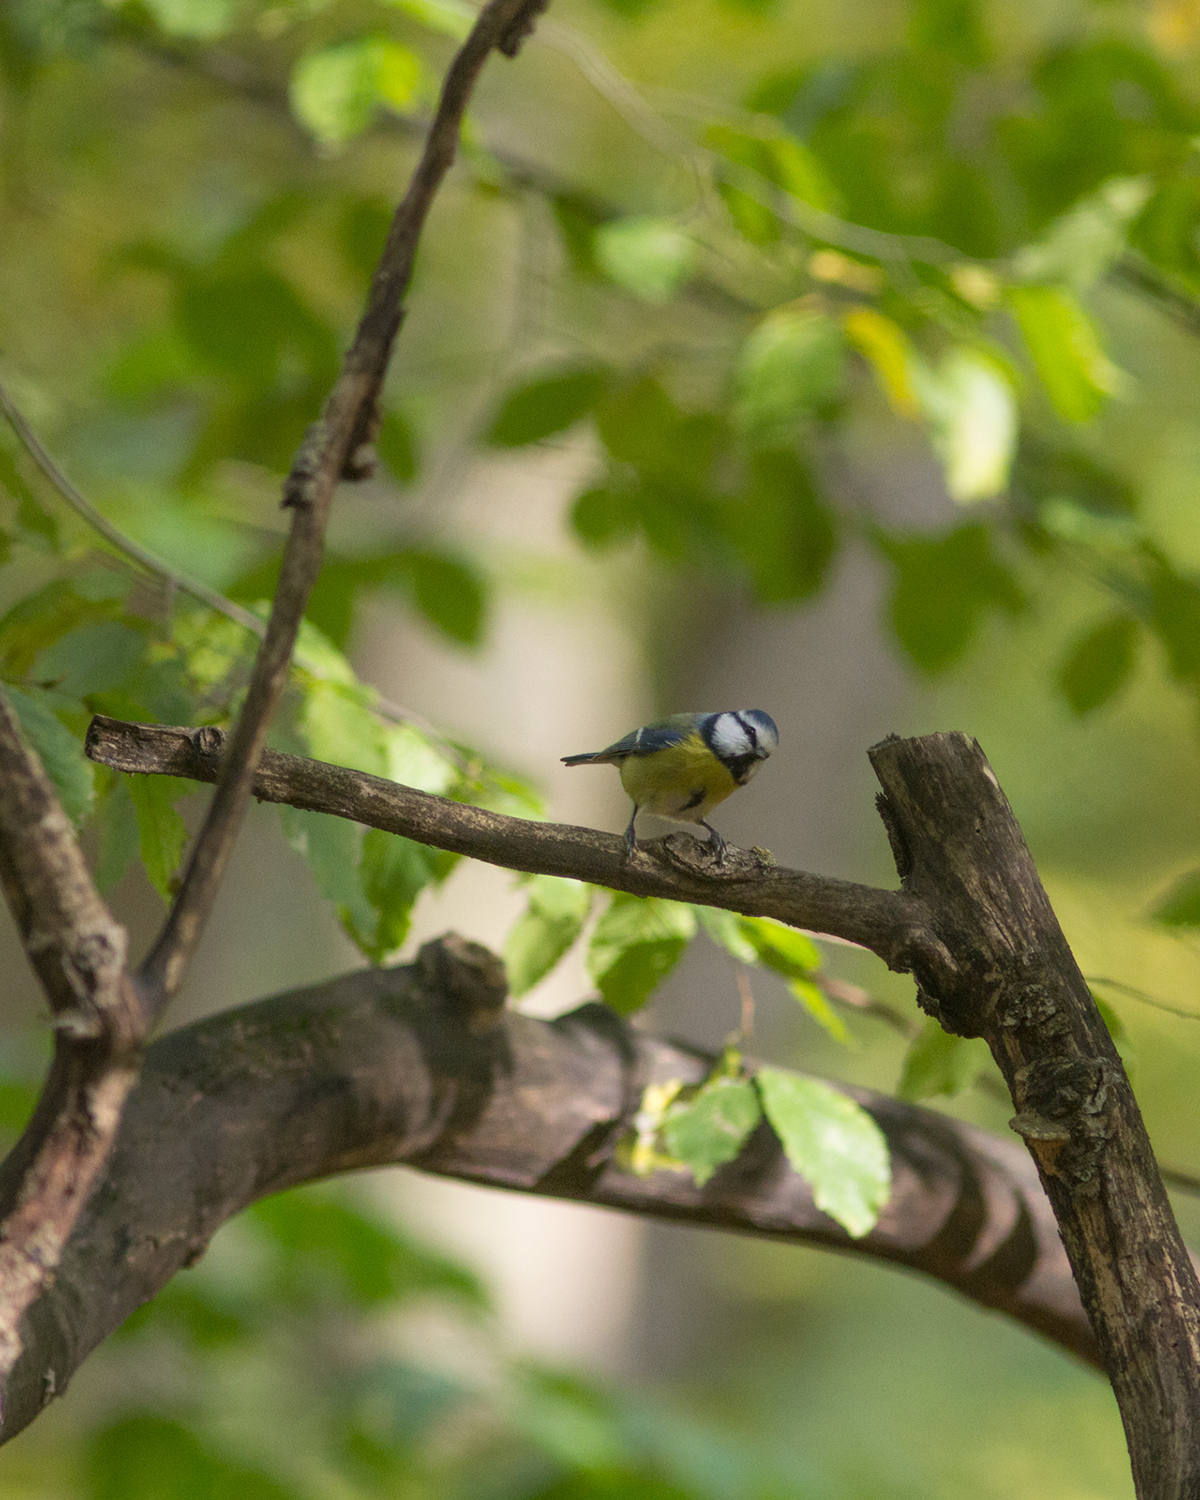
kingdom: Animalia
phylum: Chordata
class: Aves
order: Passeriformes
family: Paridae
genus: Cyanistes
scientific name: Cyanistes caeruleus
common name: Eurasian blue tit
